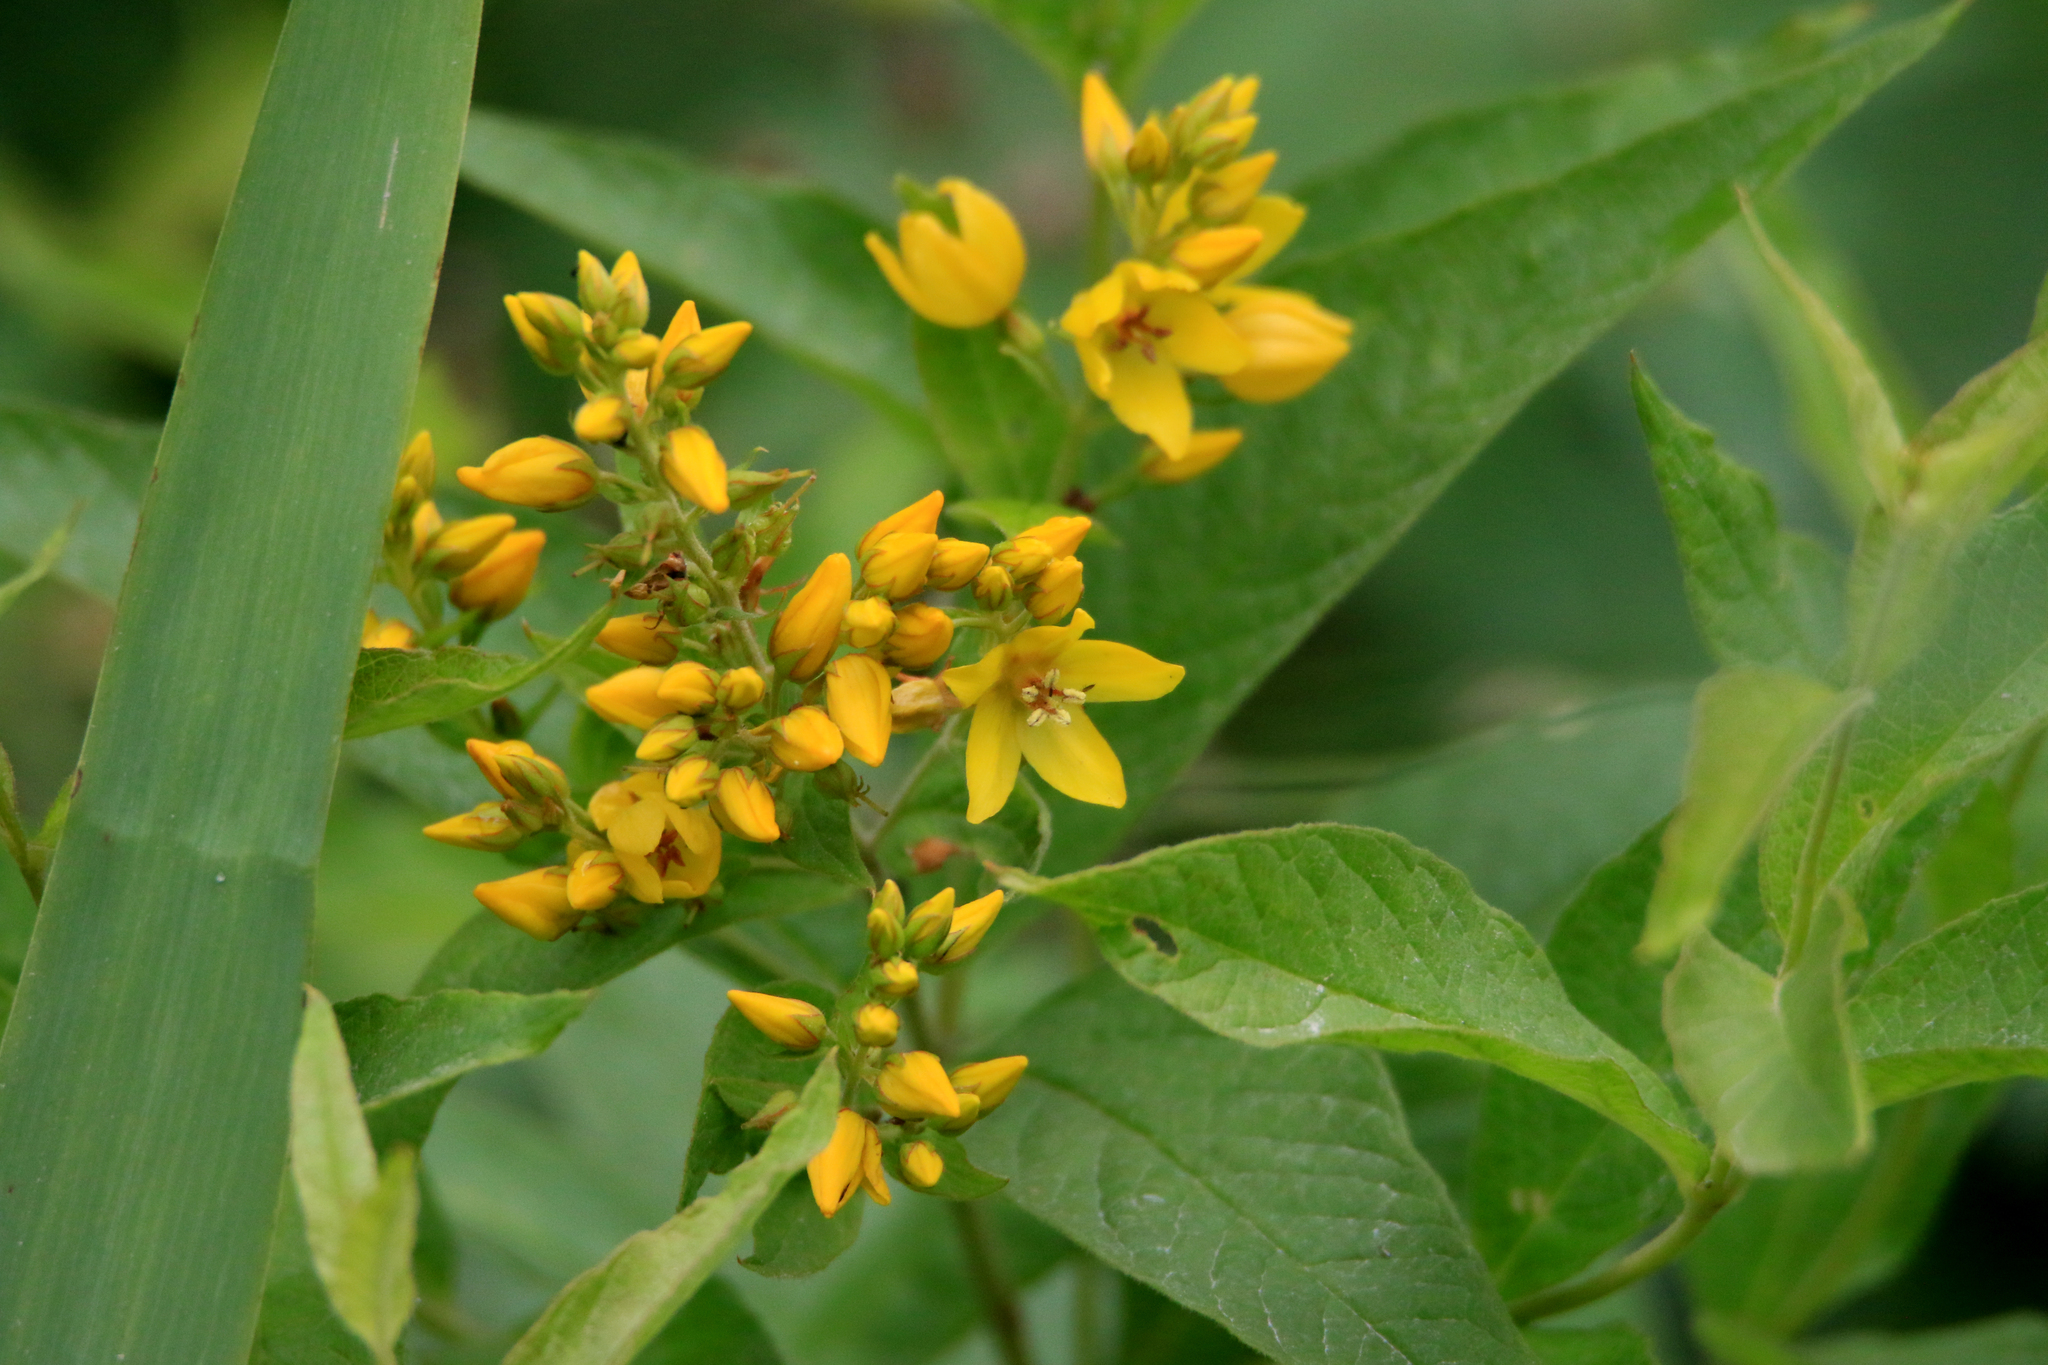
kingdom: Plantae
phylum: Tracheophyta
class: Magnoliopsida
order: Ericales
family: Primulaceae
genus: Lysimachia
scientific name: Lysimachia vulgaris
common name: Yellow loosestrife
